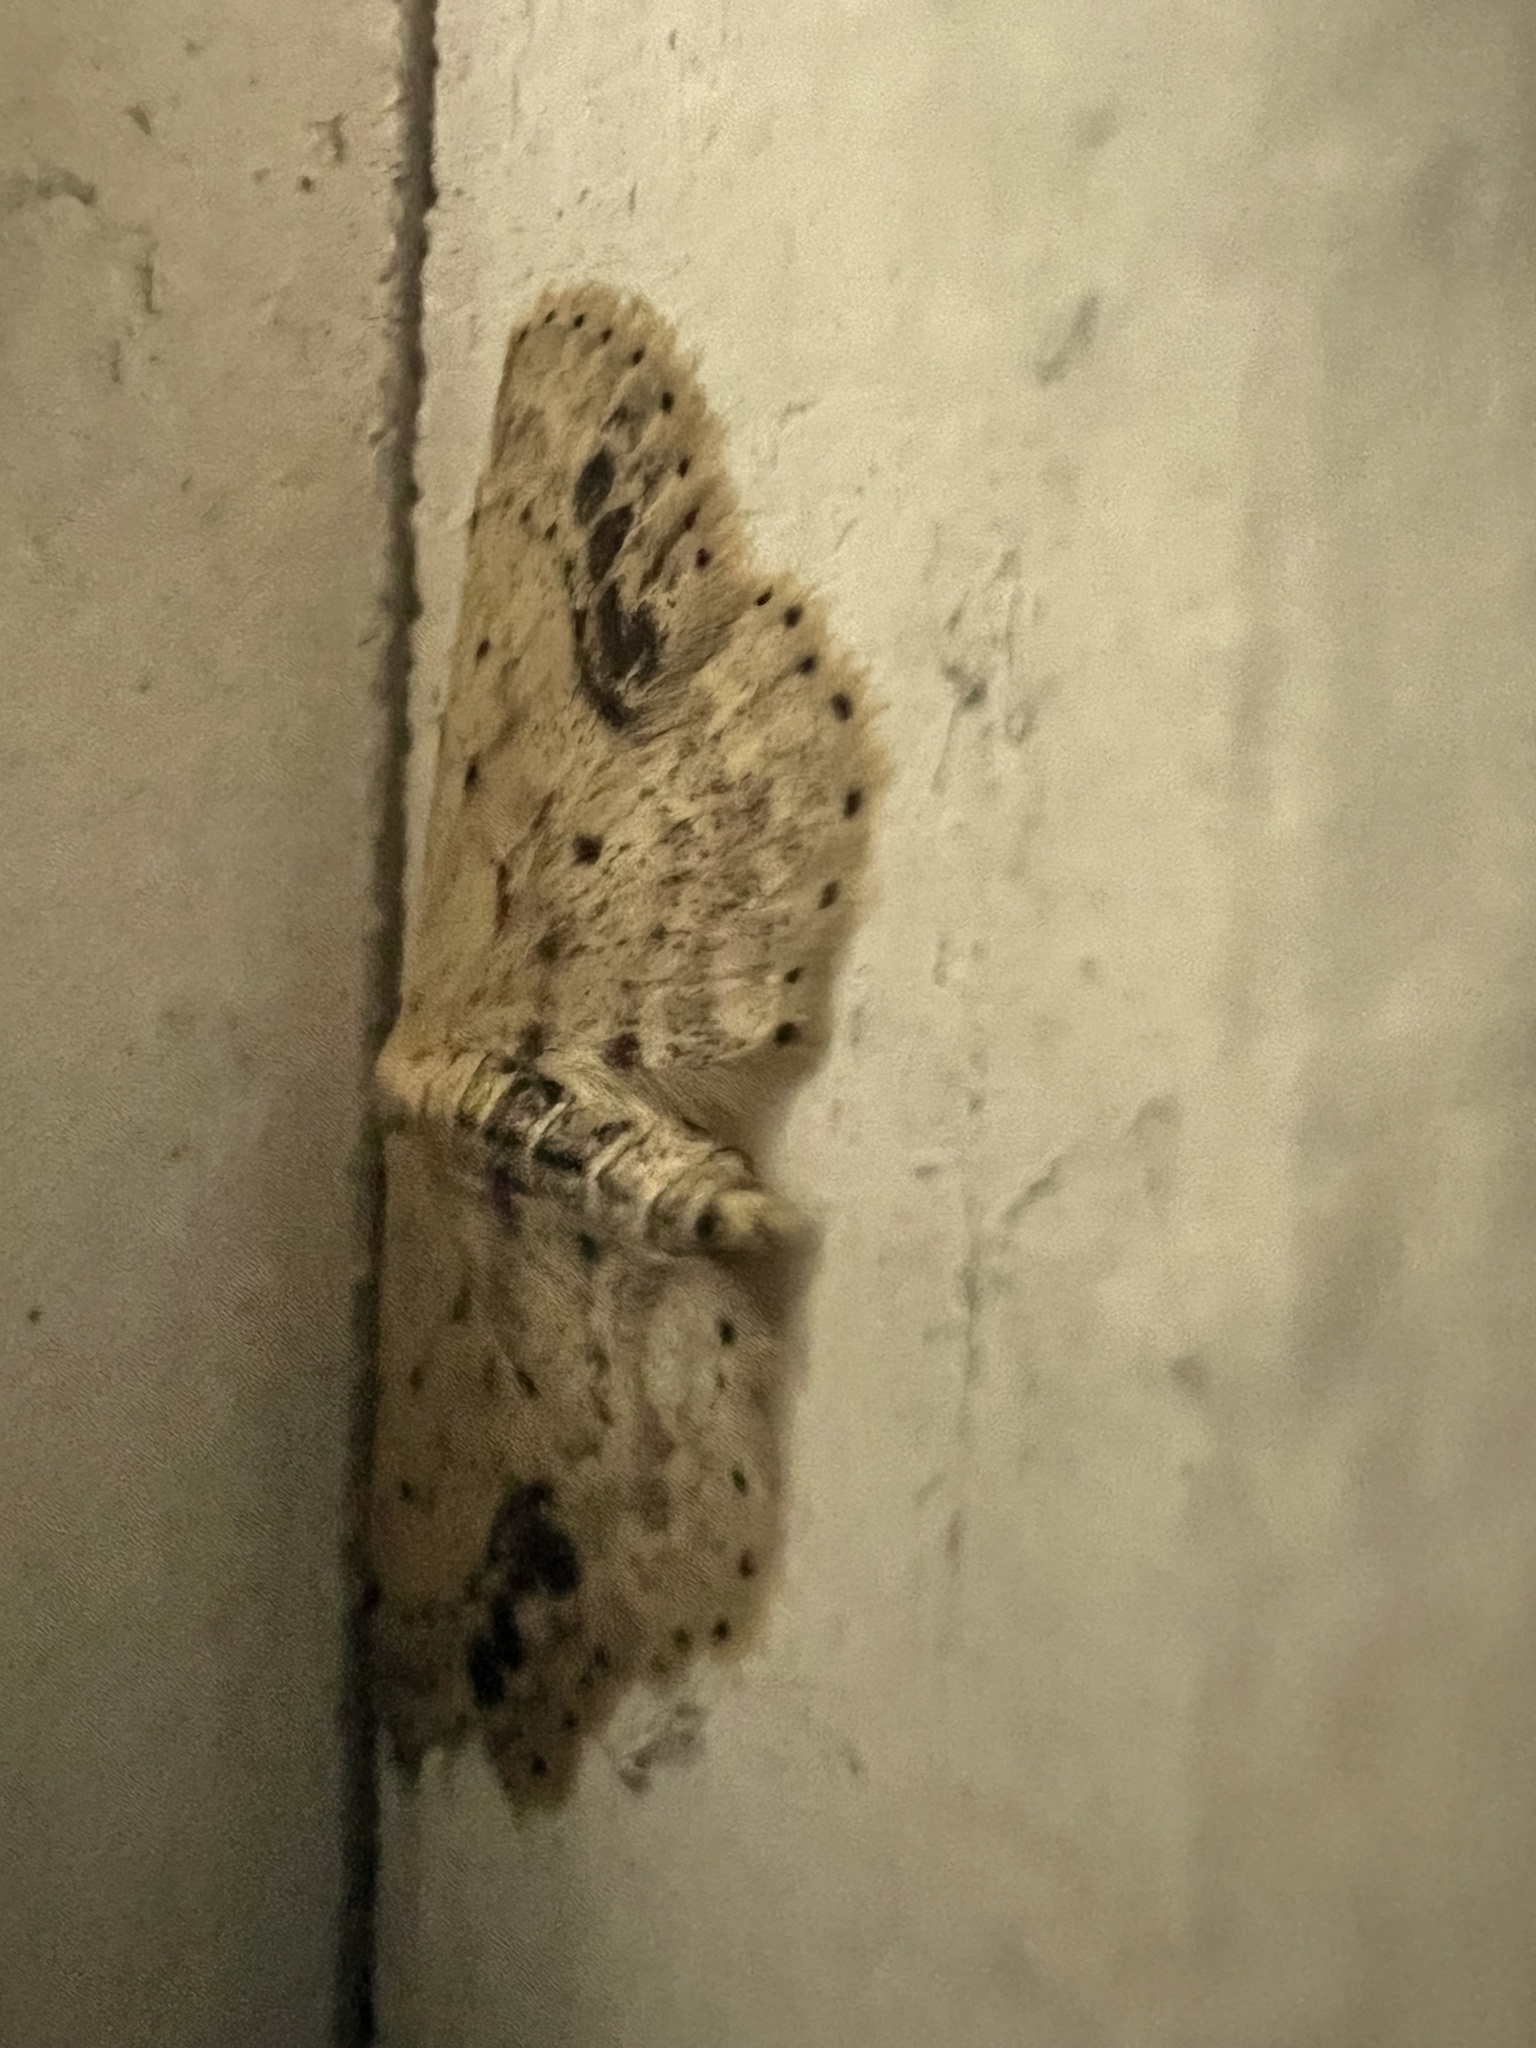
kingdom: Animalia
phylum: Arthropoda
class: Insecta
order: Lepidoptera
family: Geometridae
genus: Idaea
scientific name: Idaea dimidiata
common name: Single-dotted wave
